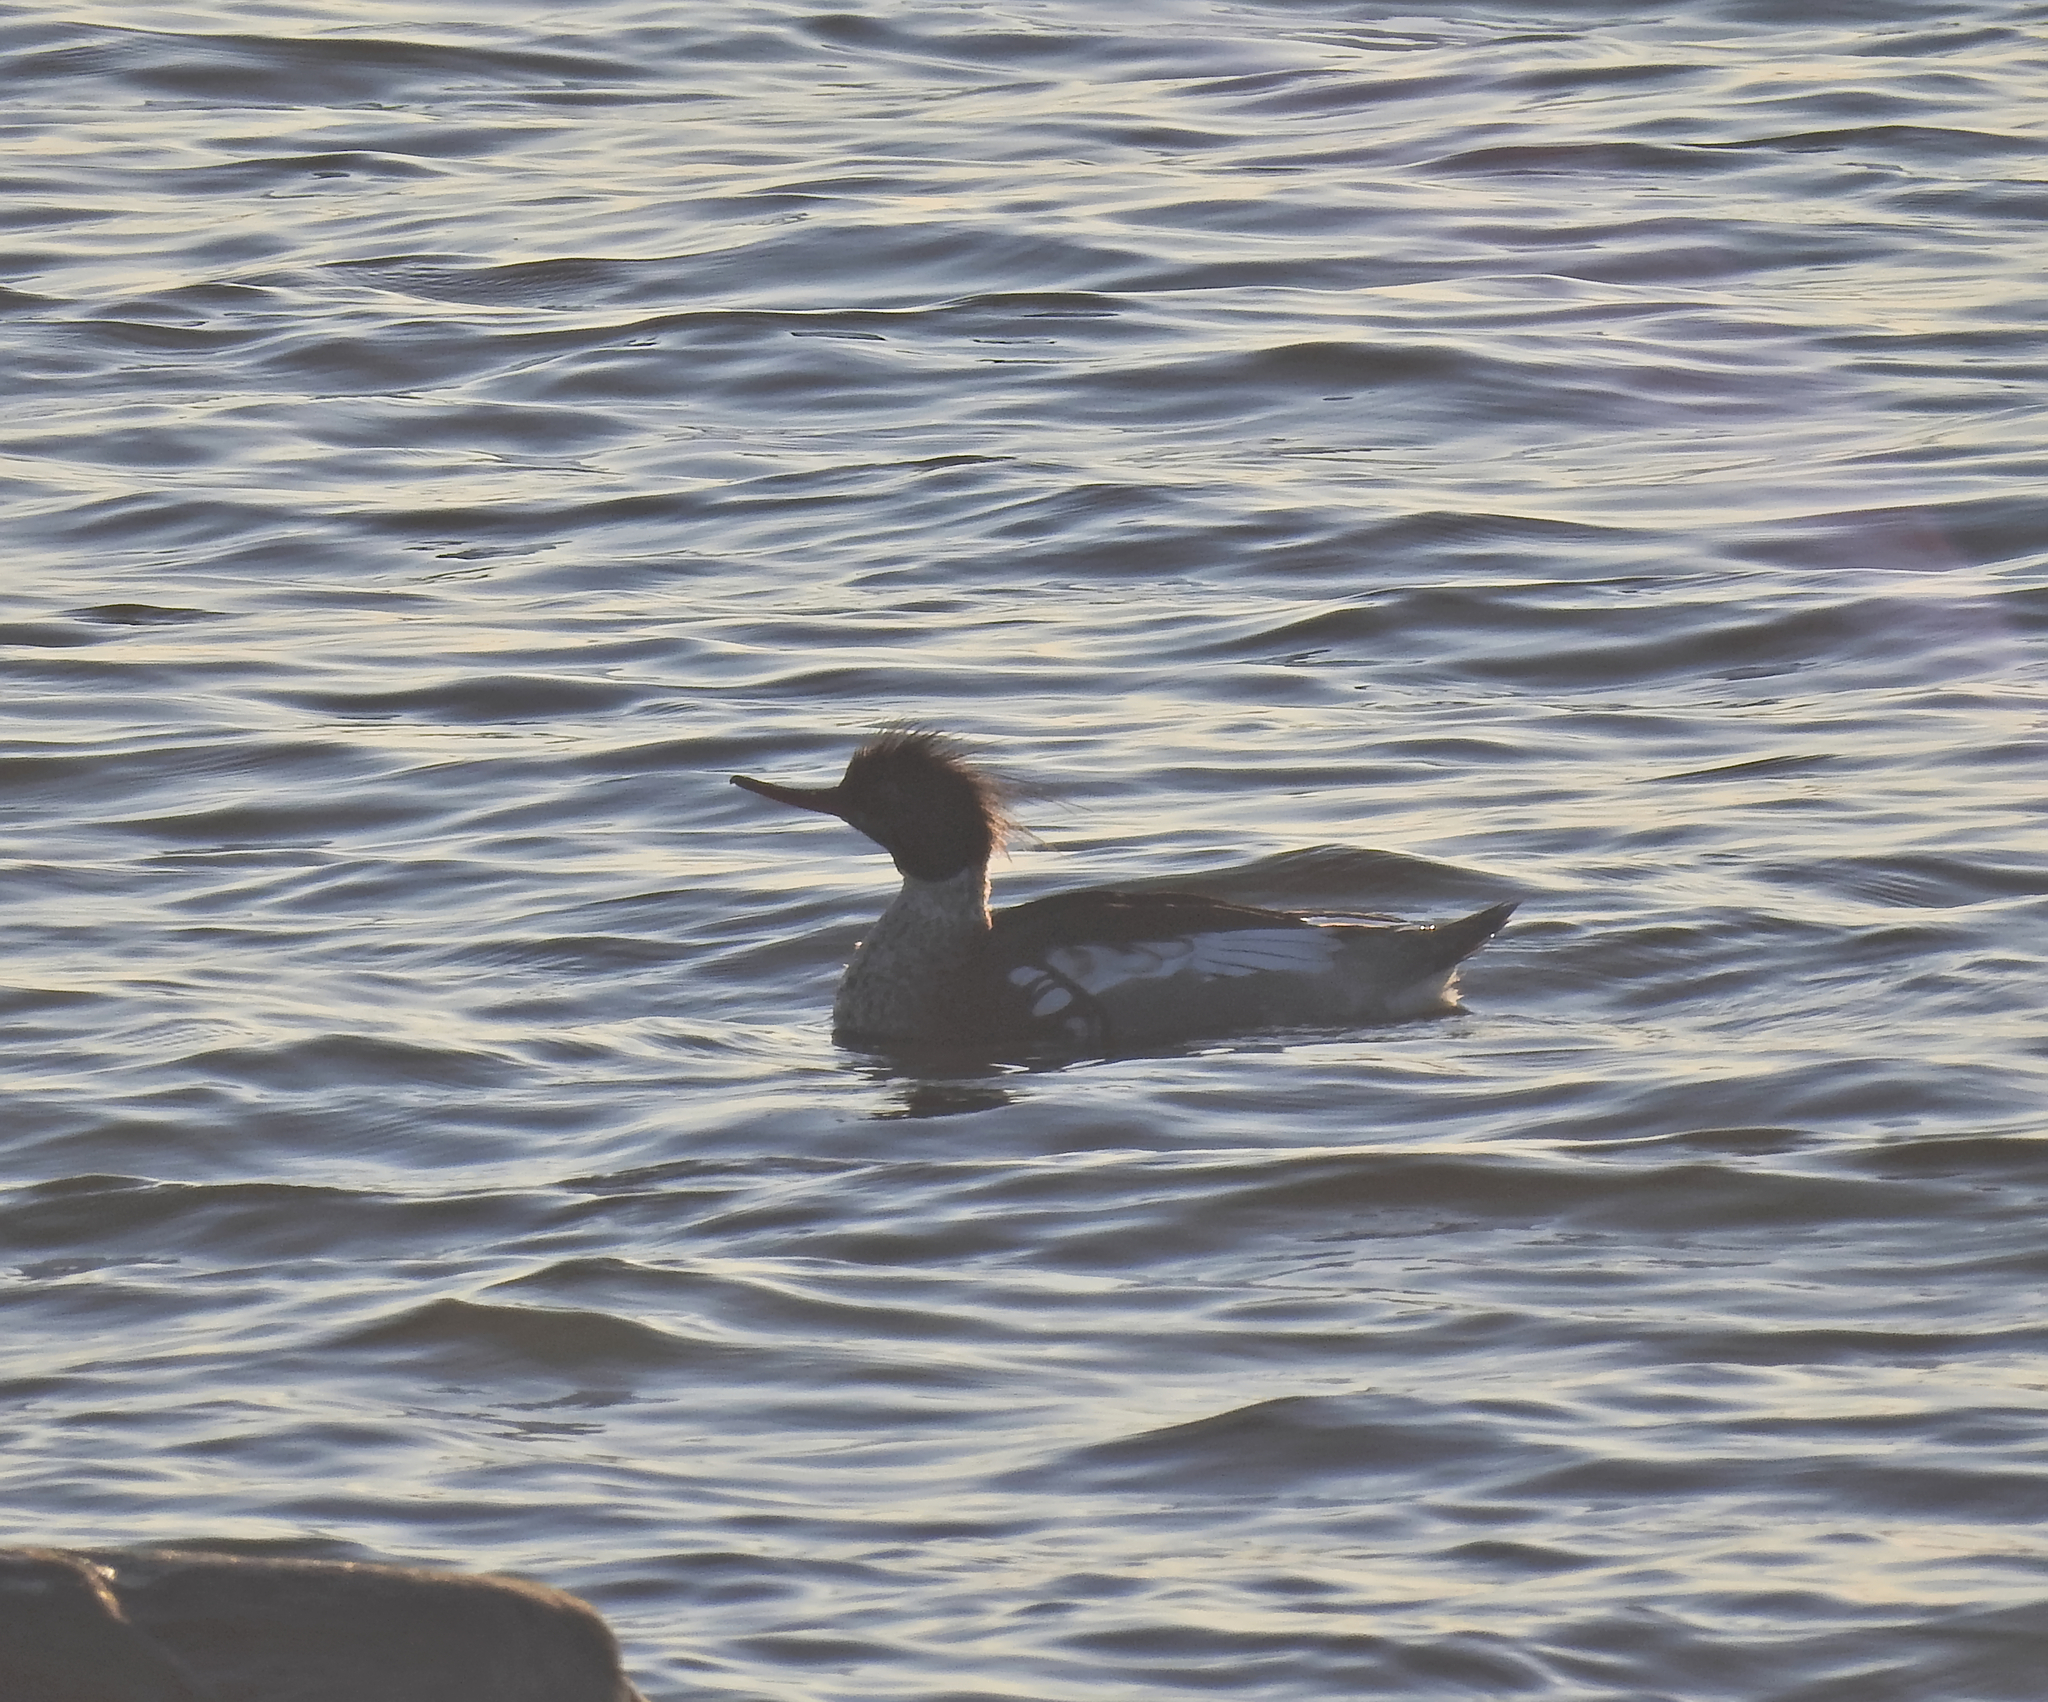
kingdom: Animalia
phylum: Chordata
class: Aves
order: Anseriformes
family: Anatidae
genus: Mergus
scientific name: Mergus serrator
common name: Red-breasted merganser
